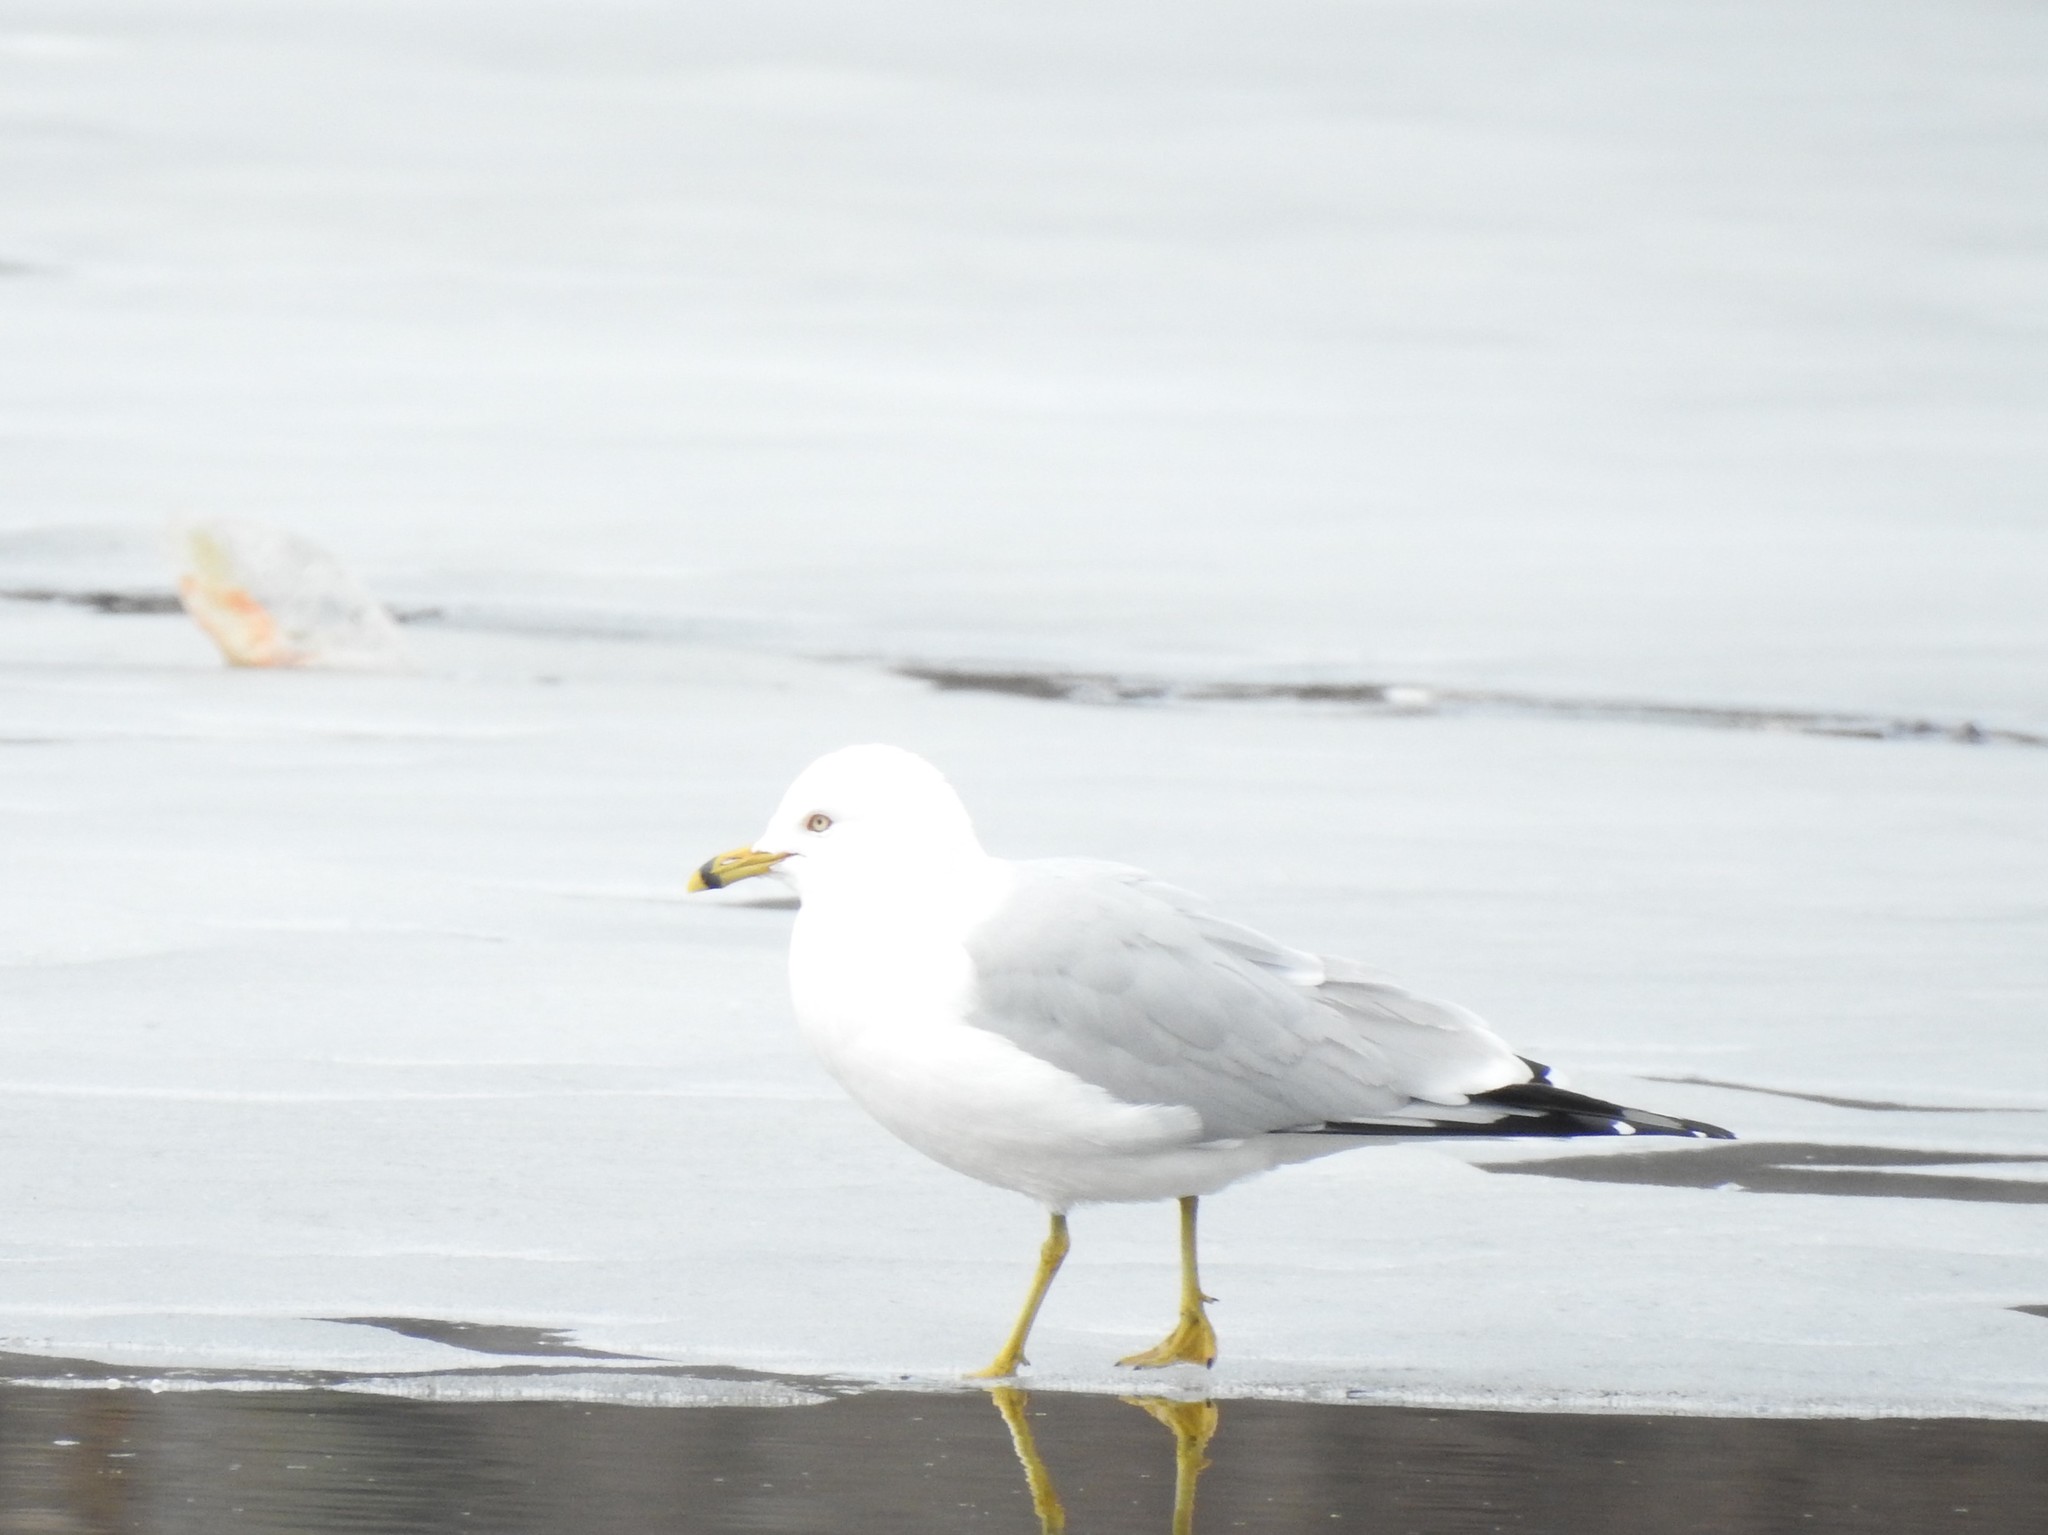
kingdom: Animalia
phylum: Chordata
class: Aves
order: Charadriiformes
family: Laridae
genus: Larus
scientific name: Larus delawarensis
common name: Ring-billed gull
